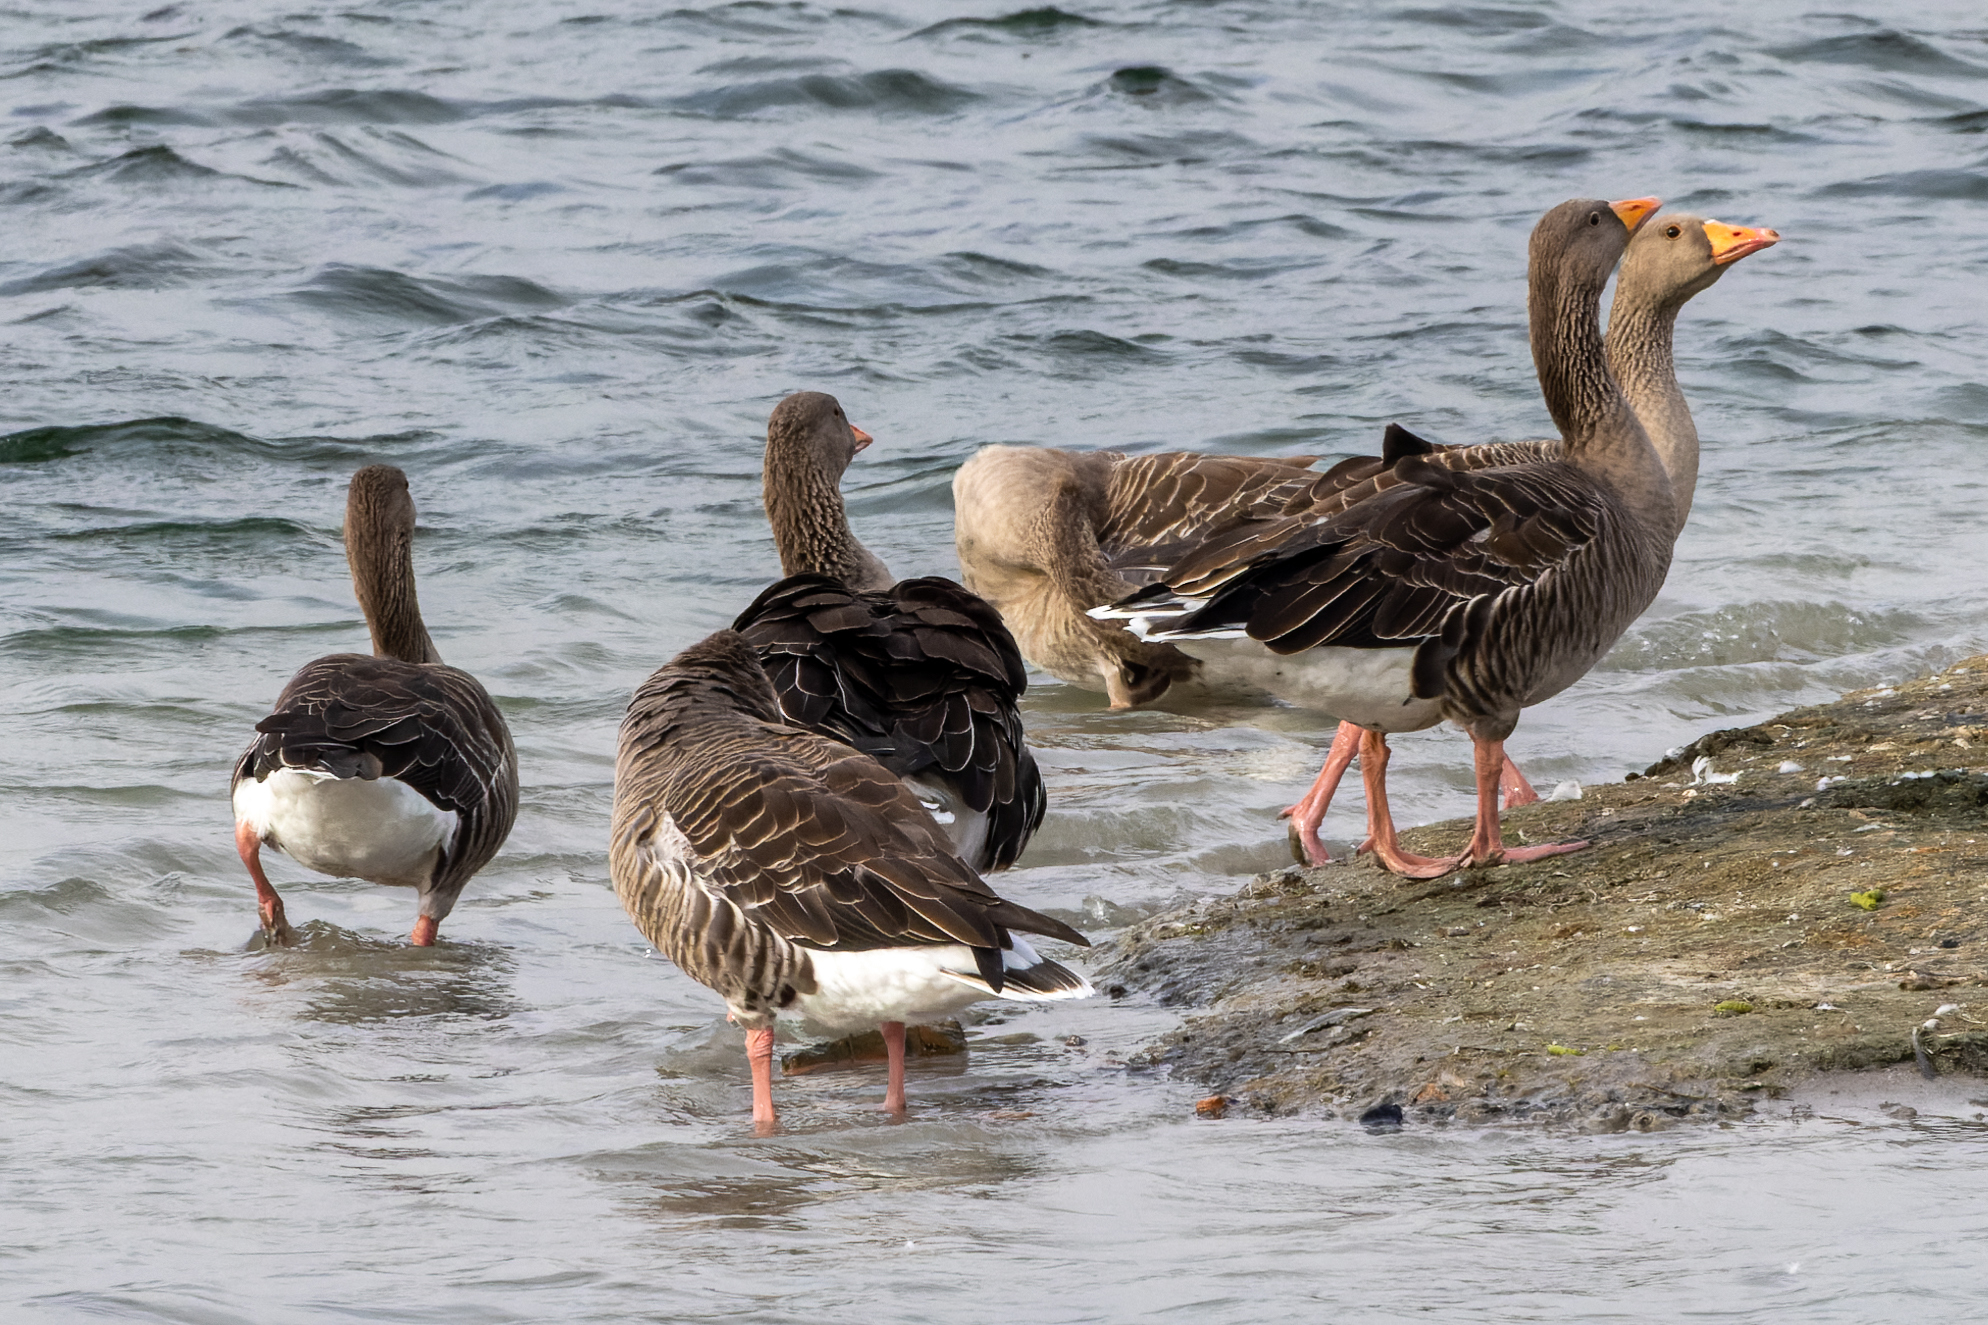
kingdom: Animalia
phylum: Chordata
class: Aves
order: Anseriformes
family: Anatidae
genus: Anser
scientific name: Anser anser
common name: Greylag goose
